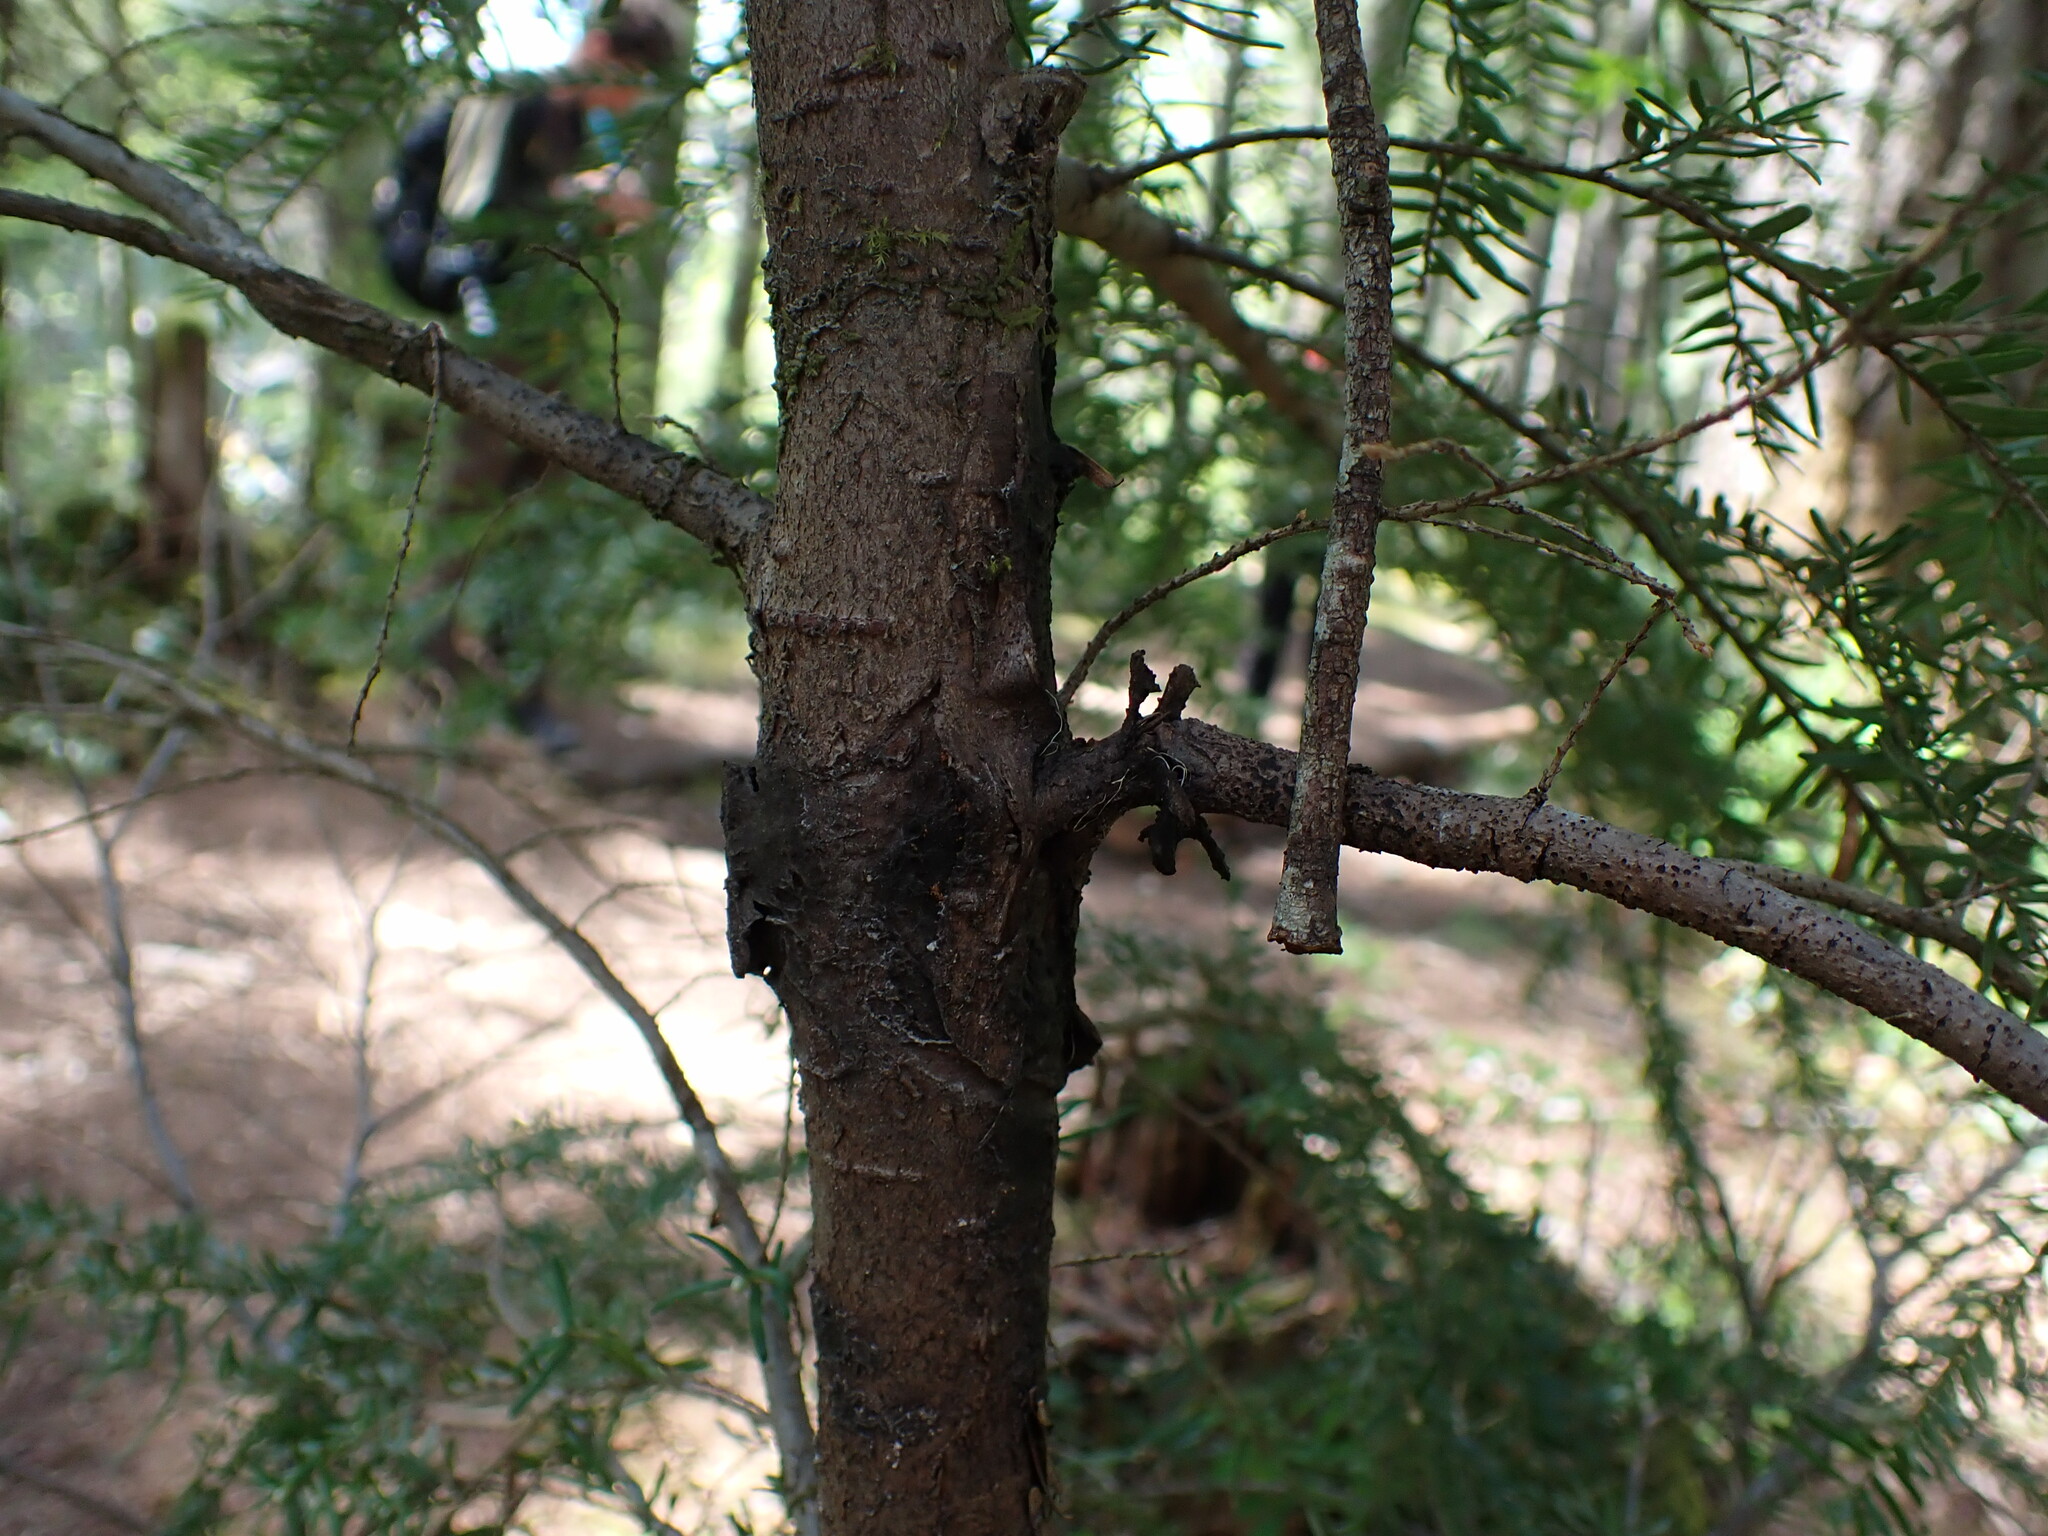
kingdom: Plantae
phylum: Tracheophyta
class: Pinopsida
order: Pinales
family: Pinaceae
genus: Tsuga
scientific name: Tsuga heterophylla
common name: Western hemlock
